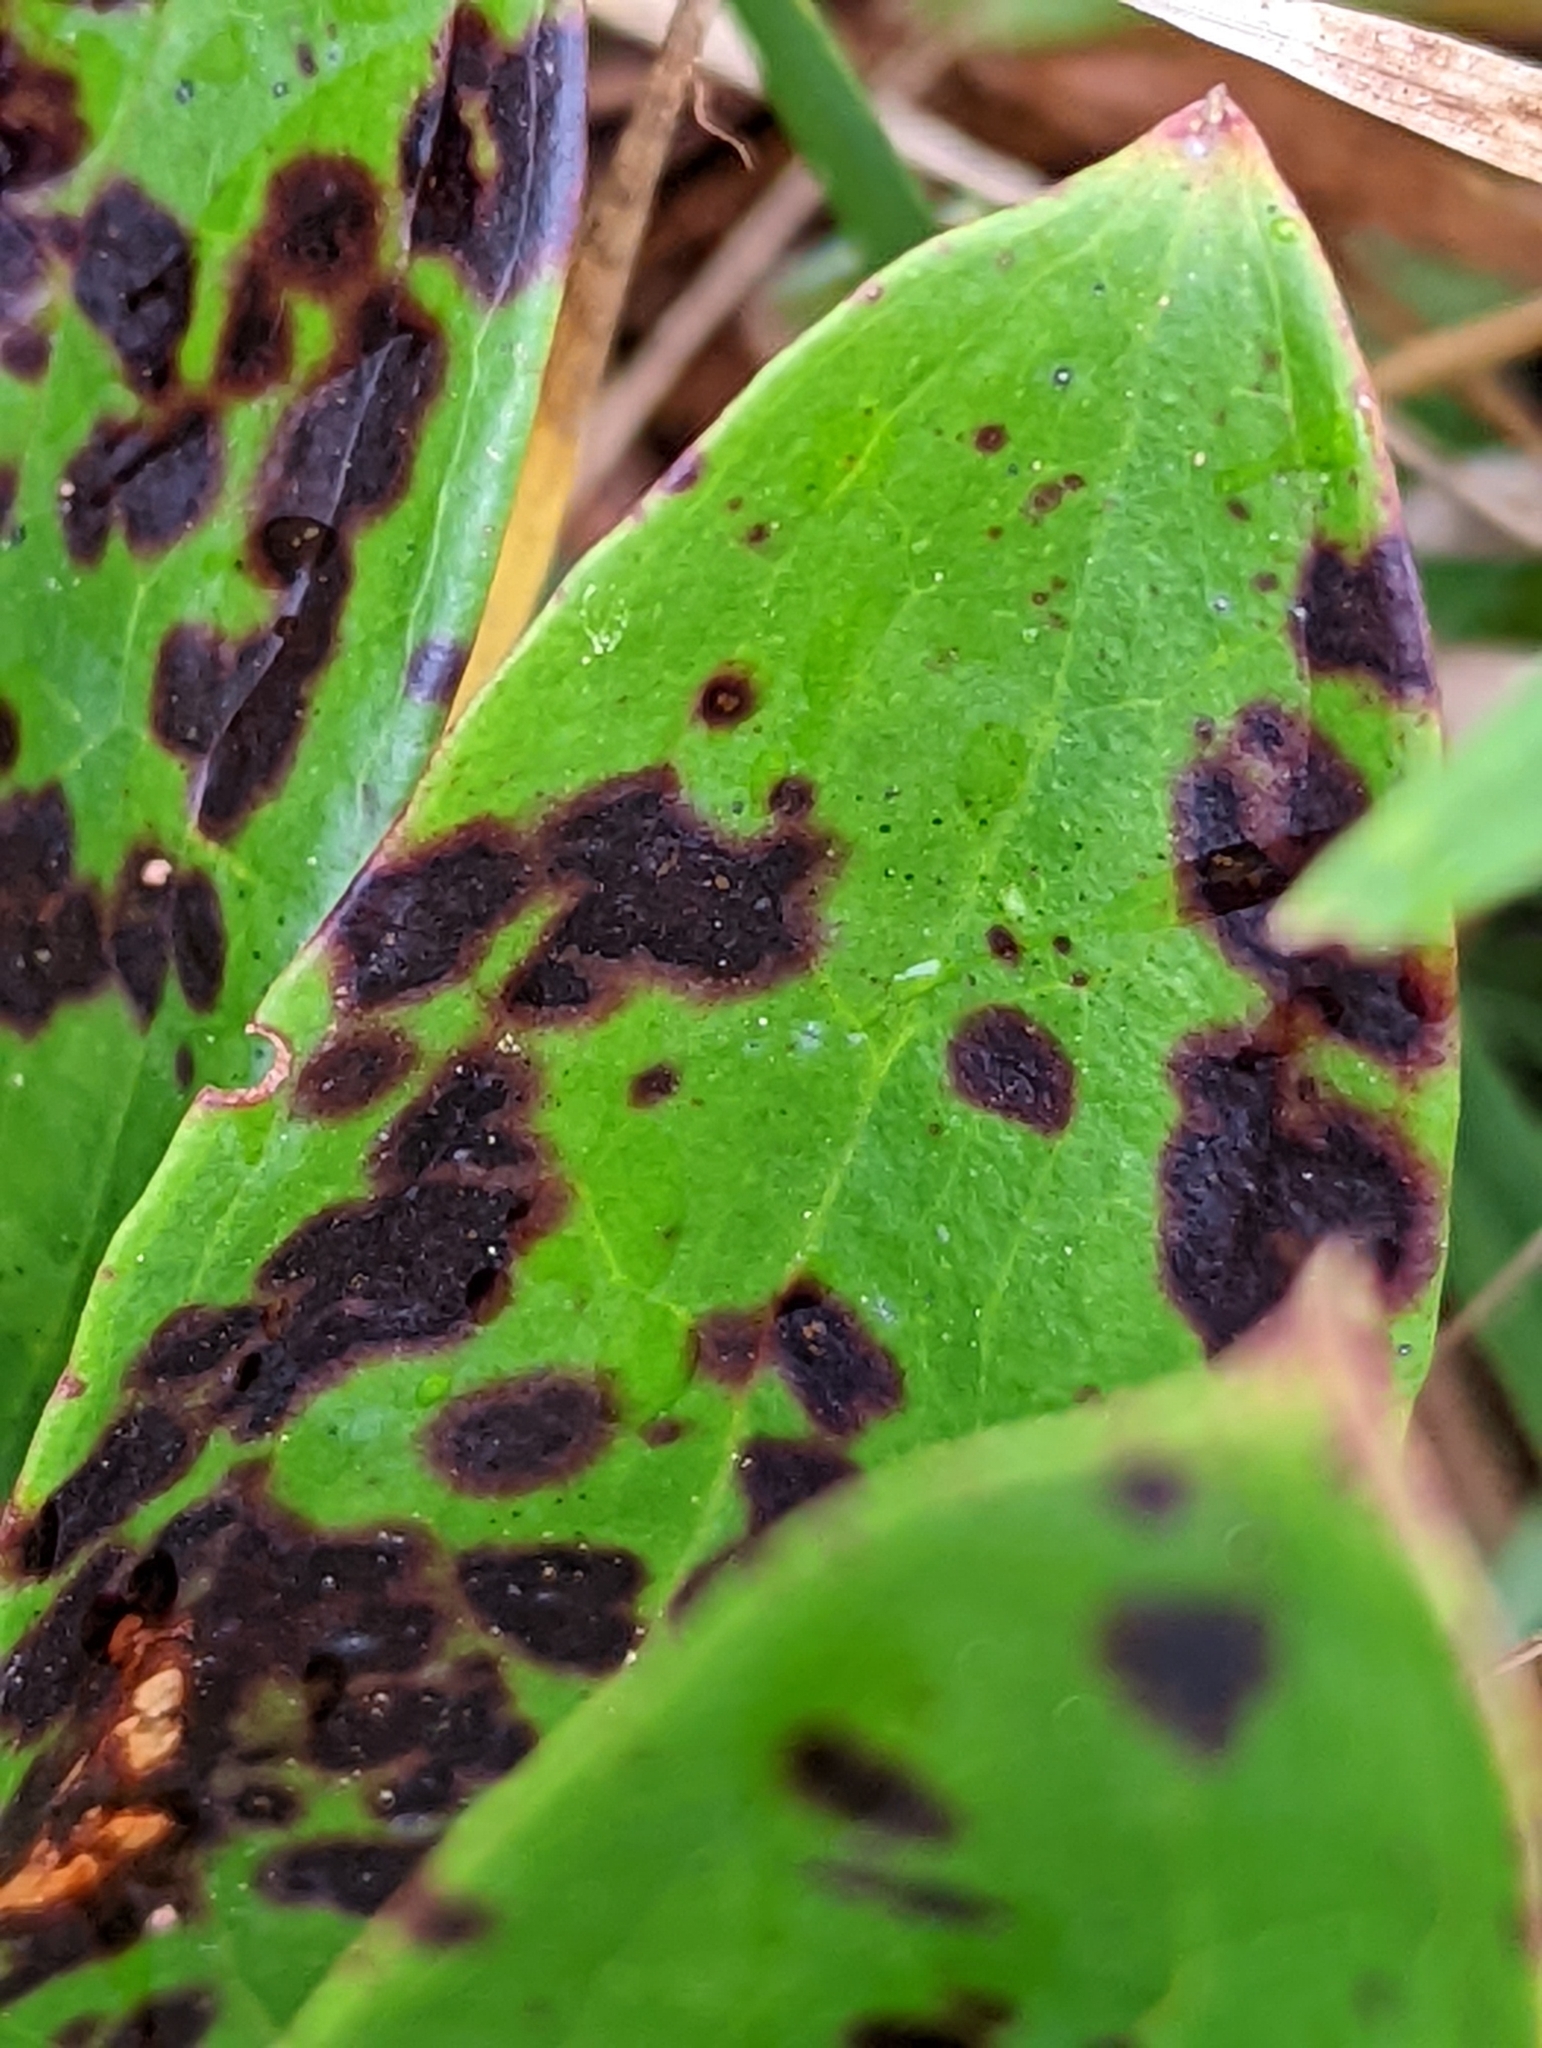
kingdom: Plantae
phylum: Tracheophyta
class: Liliopsida
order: Liliales
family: Smilacaceae
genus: Smilax
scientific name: Smilax glauca
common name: Cat greenbrier
